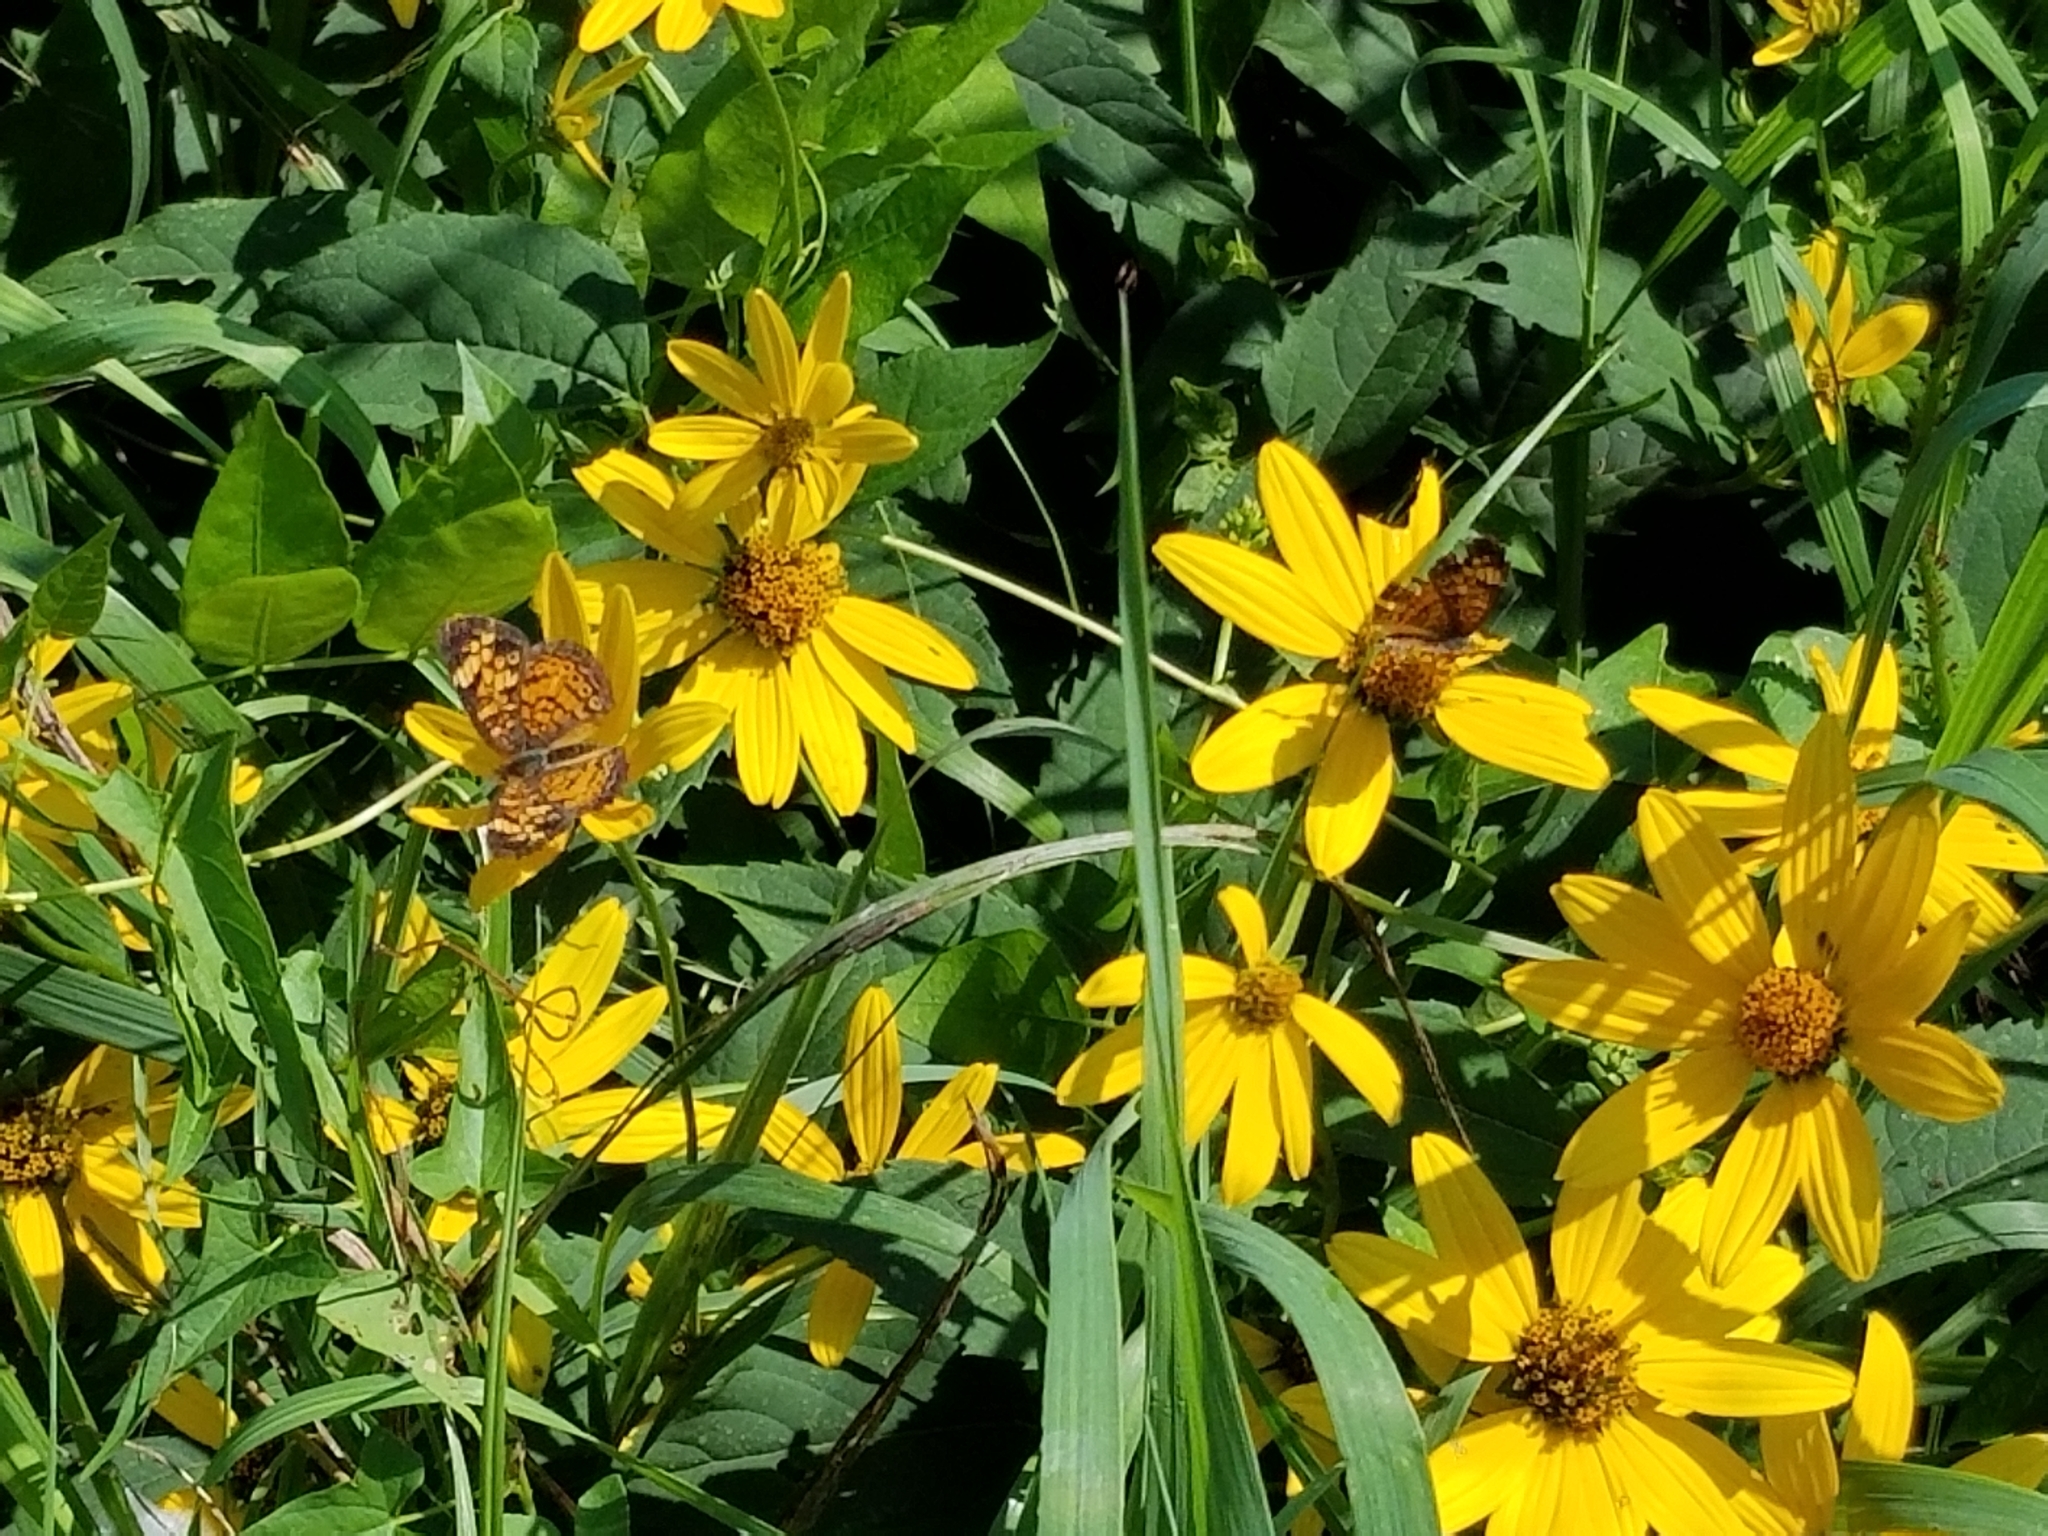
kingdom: Animalia
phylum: Arthropoda
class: Insecta
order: Lepidoptera
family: Nymphalidae
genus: Phyciodes
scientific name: Phyciodes tharos
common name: Pearl crescent
